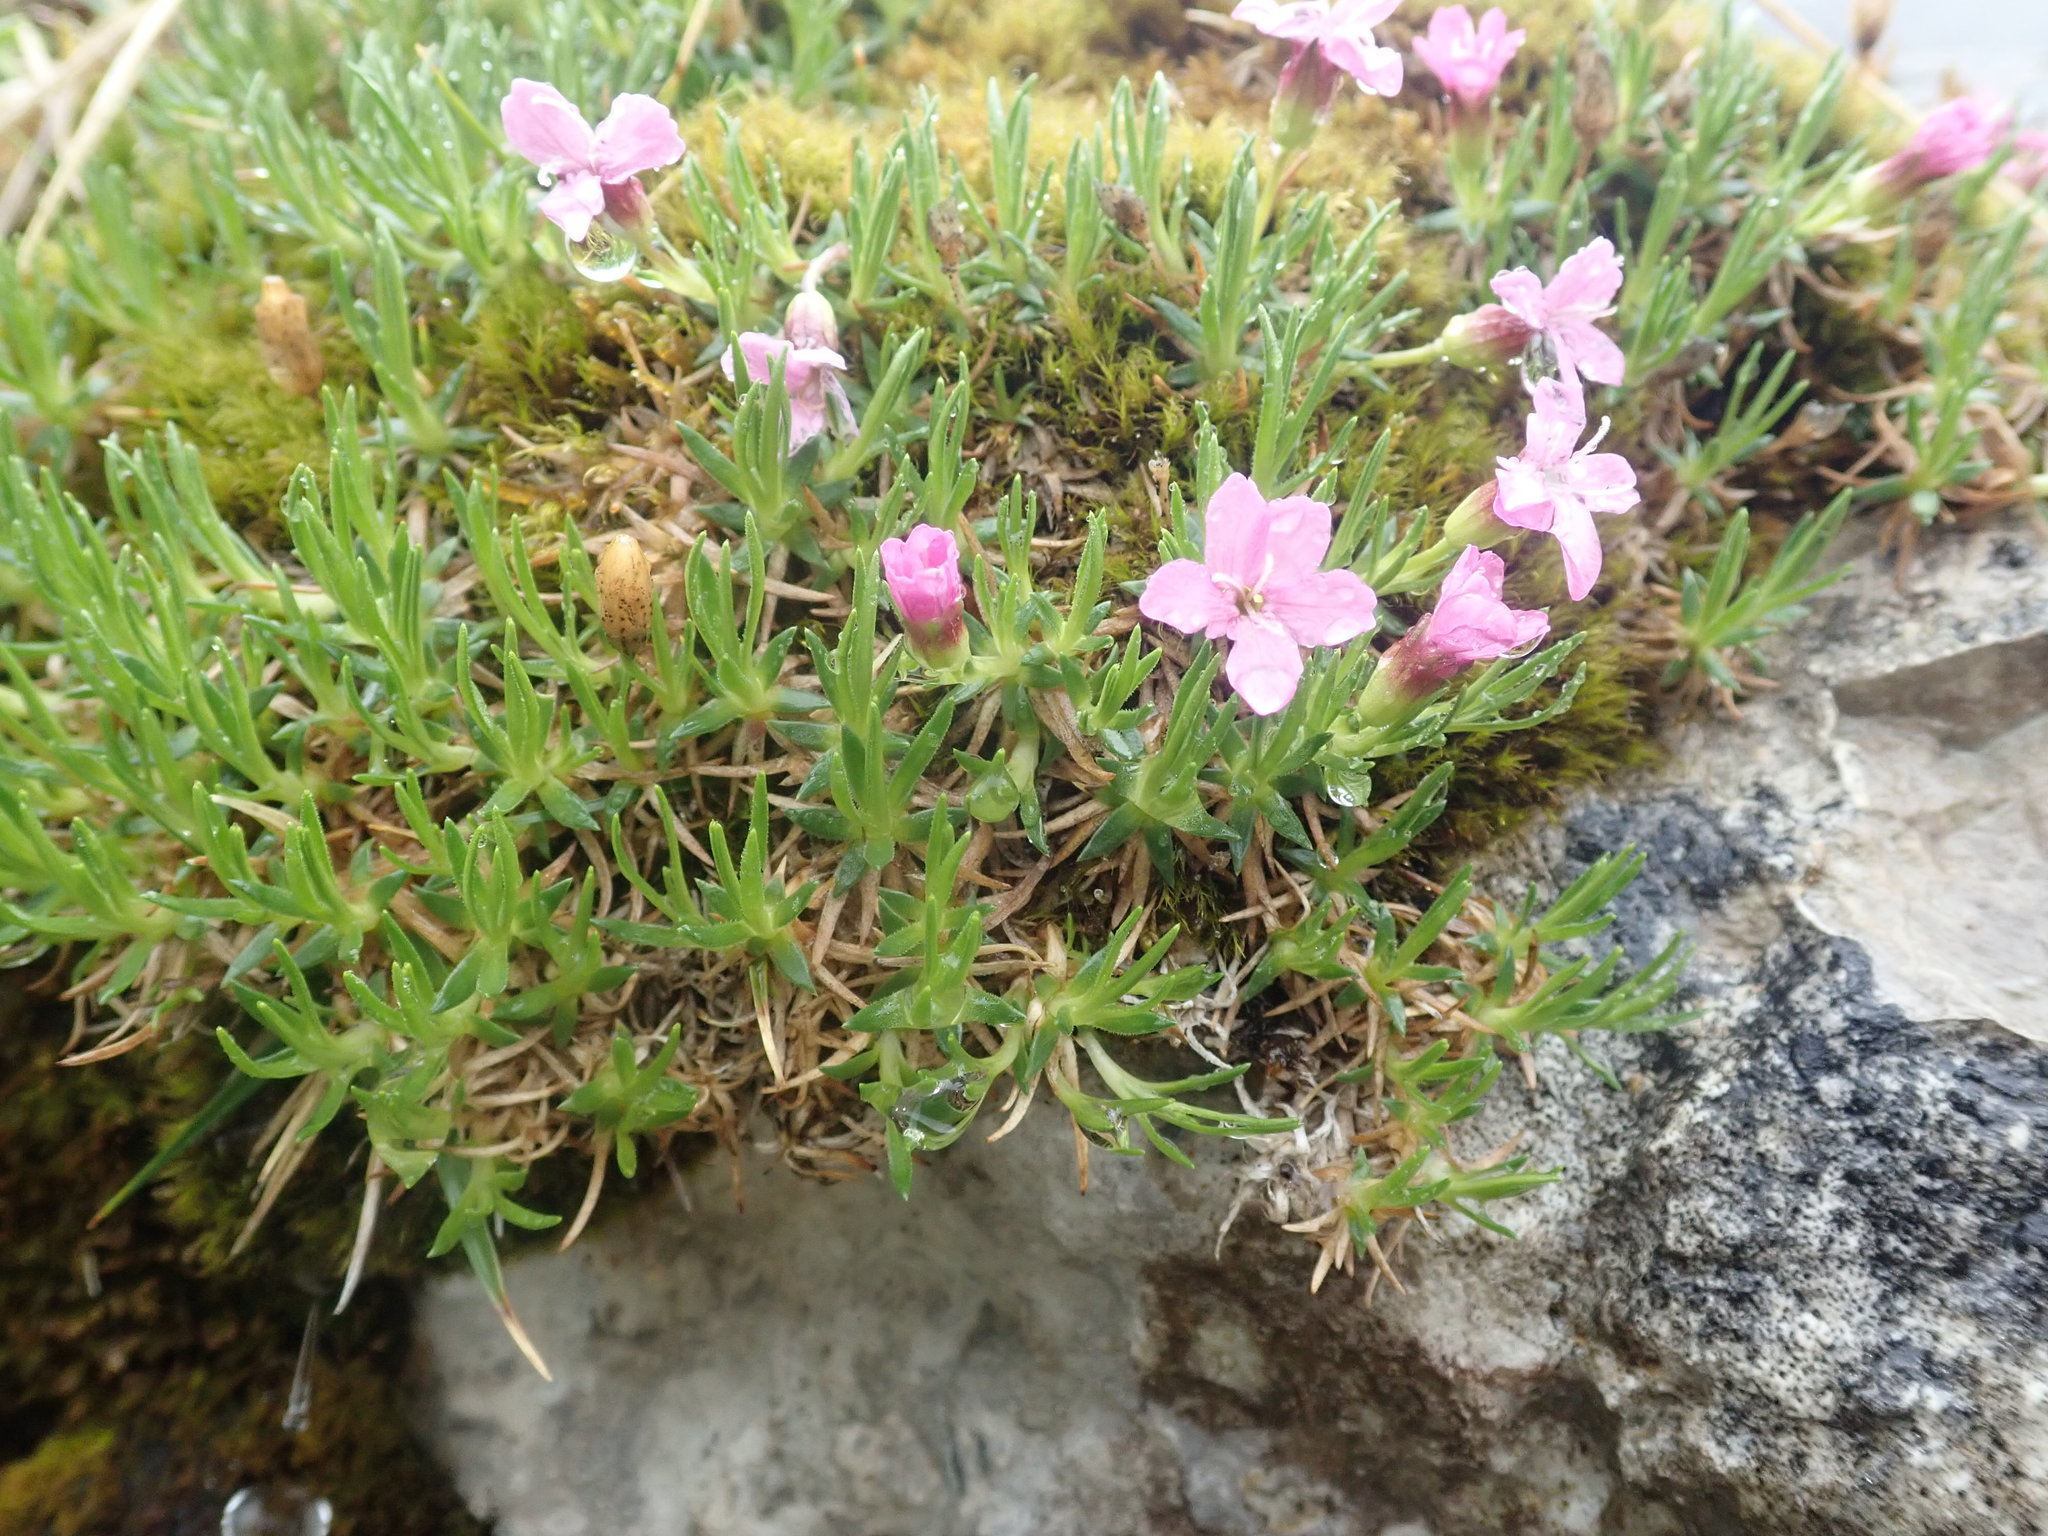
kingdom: Plantae
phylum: Tracheophyta
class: Magnoliopsida
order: Caryophyllales
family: Caryophyllaceae
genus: Silene
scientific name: Silene acaulis
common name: Moss campion
